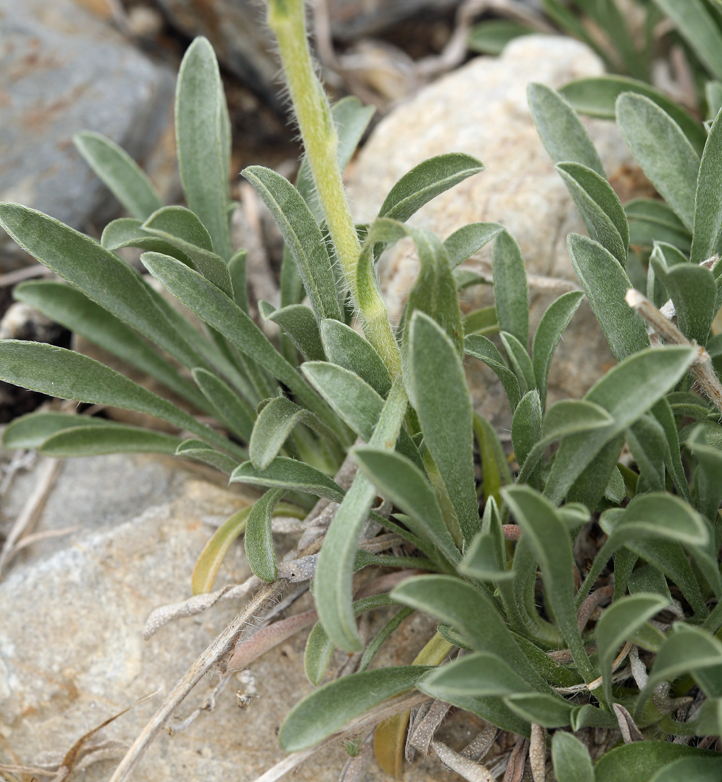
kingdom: Plantae
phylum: Tracheophyta
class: Magnoliopsida
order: Boraginales
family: Boraginaceae
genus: Oreocarya
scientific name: Oreocarya flavoculata
